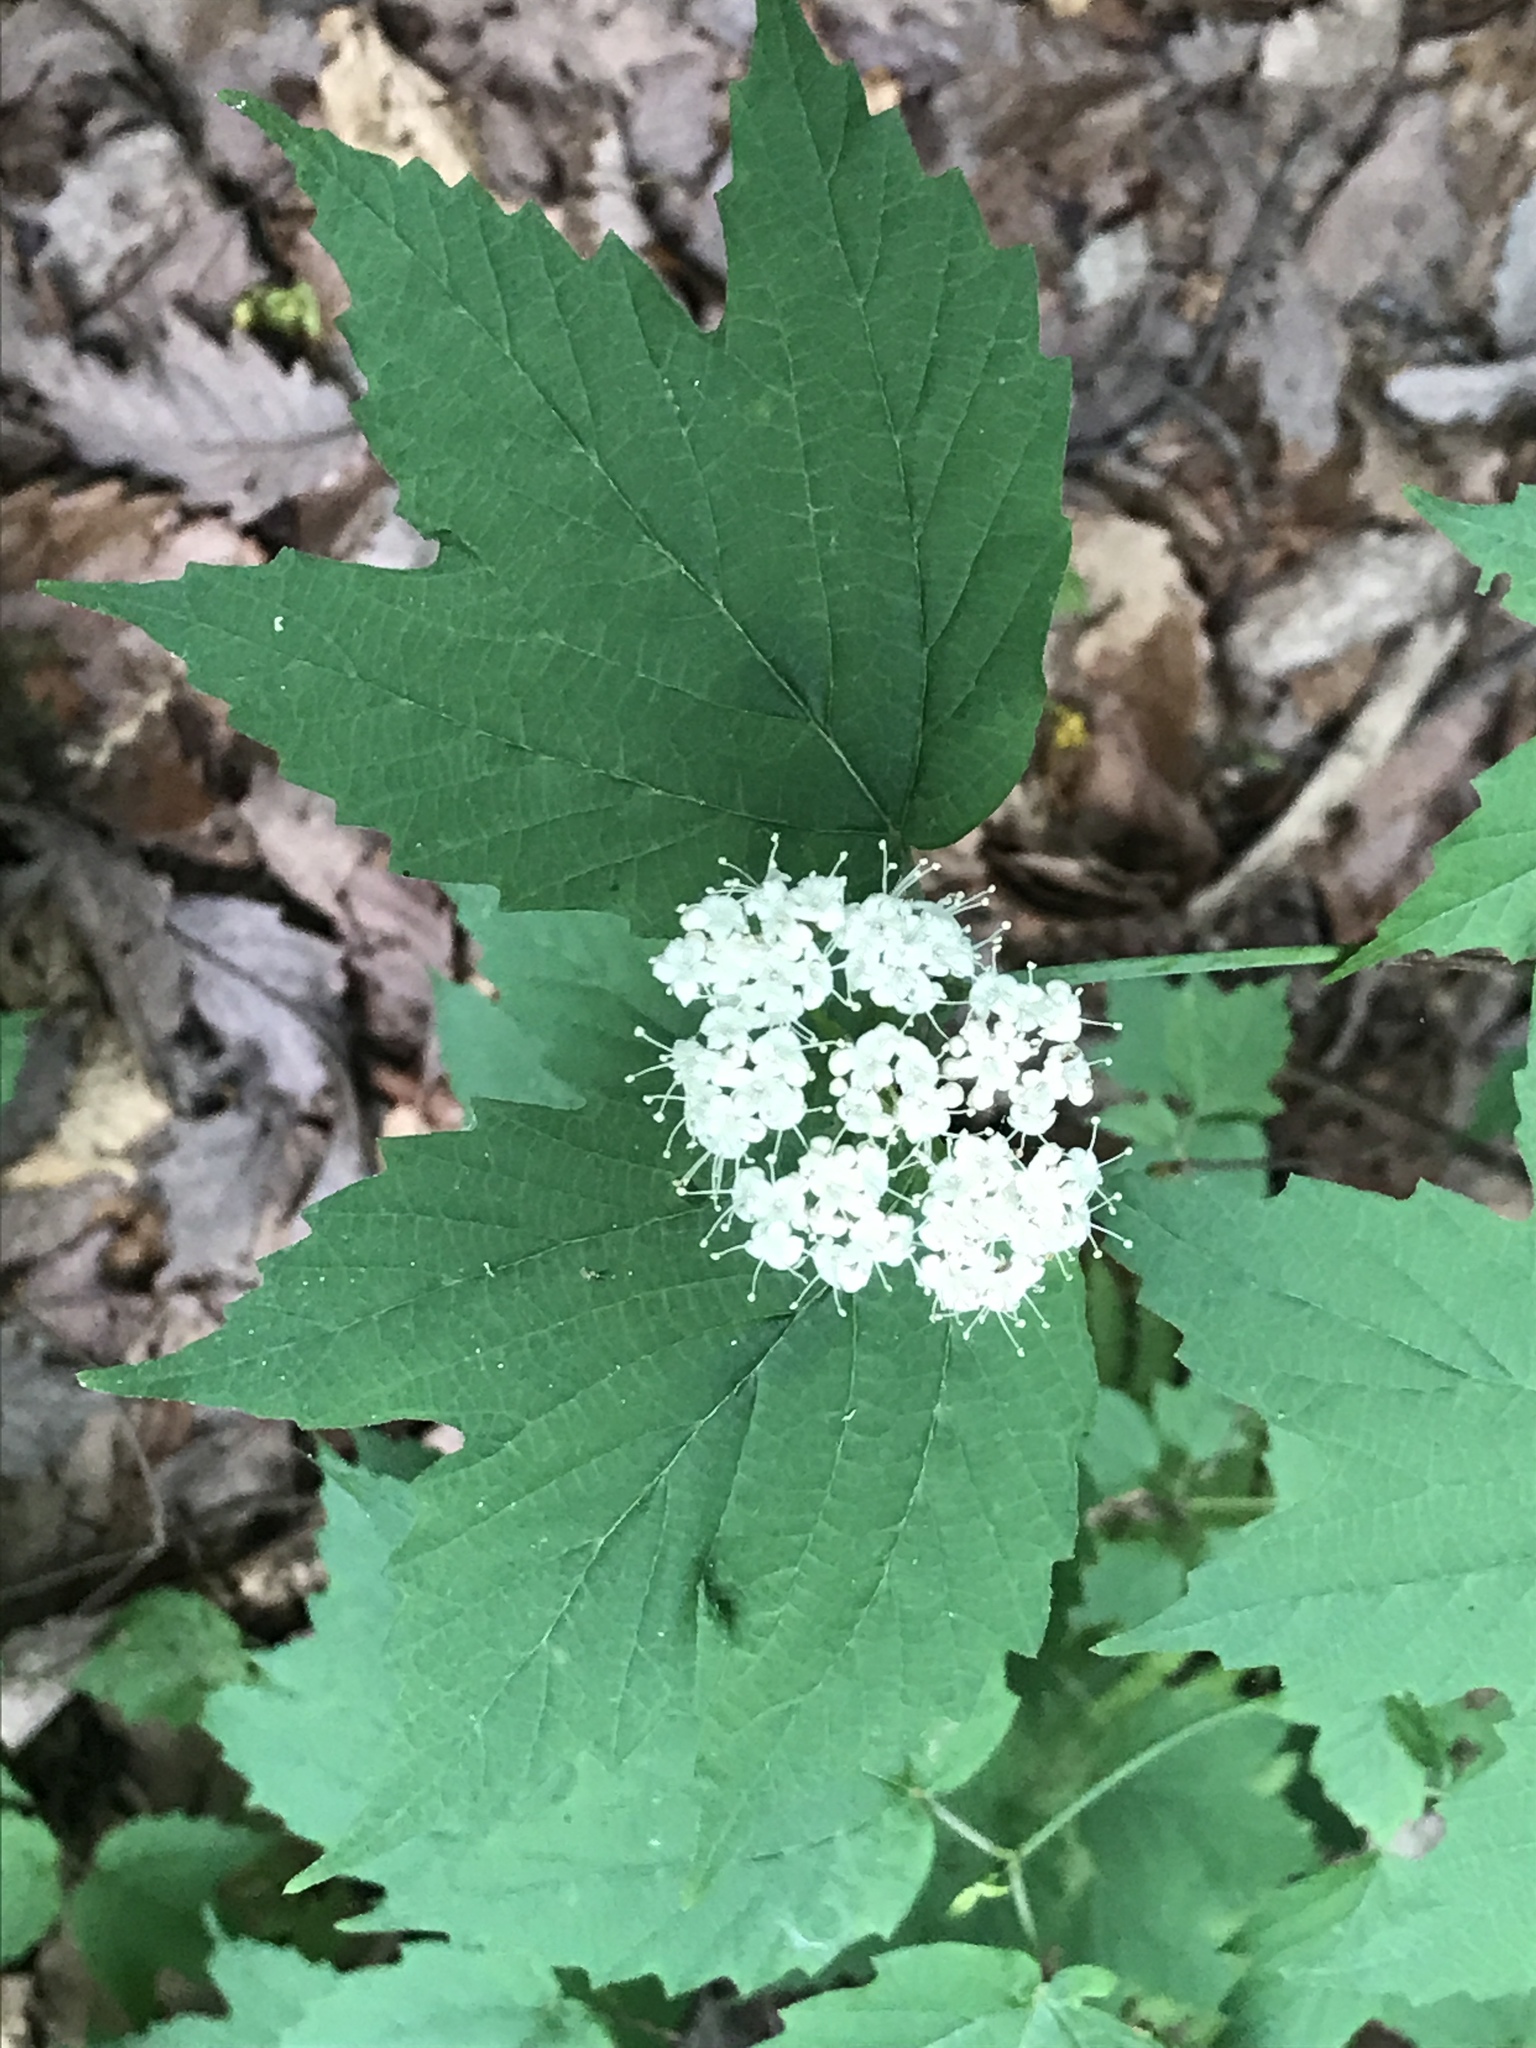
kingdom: Plantae
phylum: Tracheophyta
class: Magnoliopsida
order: Dipsacales
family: Viburnaceae
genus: Viburnum
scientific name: Viburnum acerifolium
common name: Dockmackie
